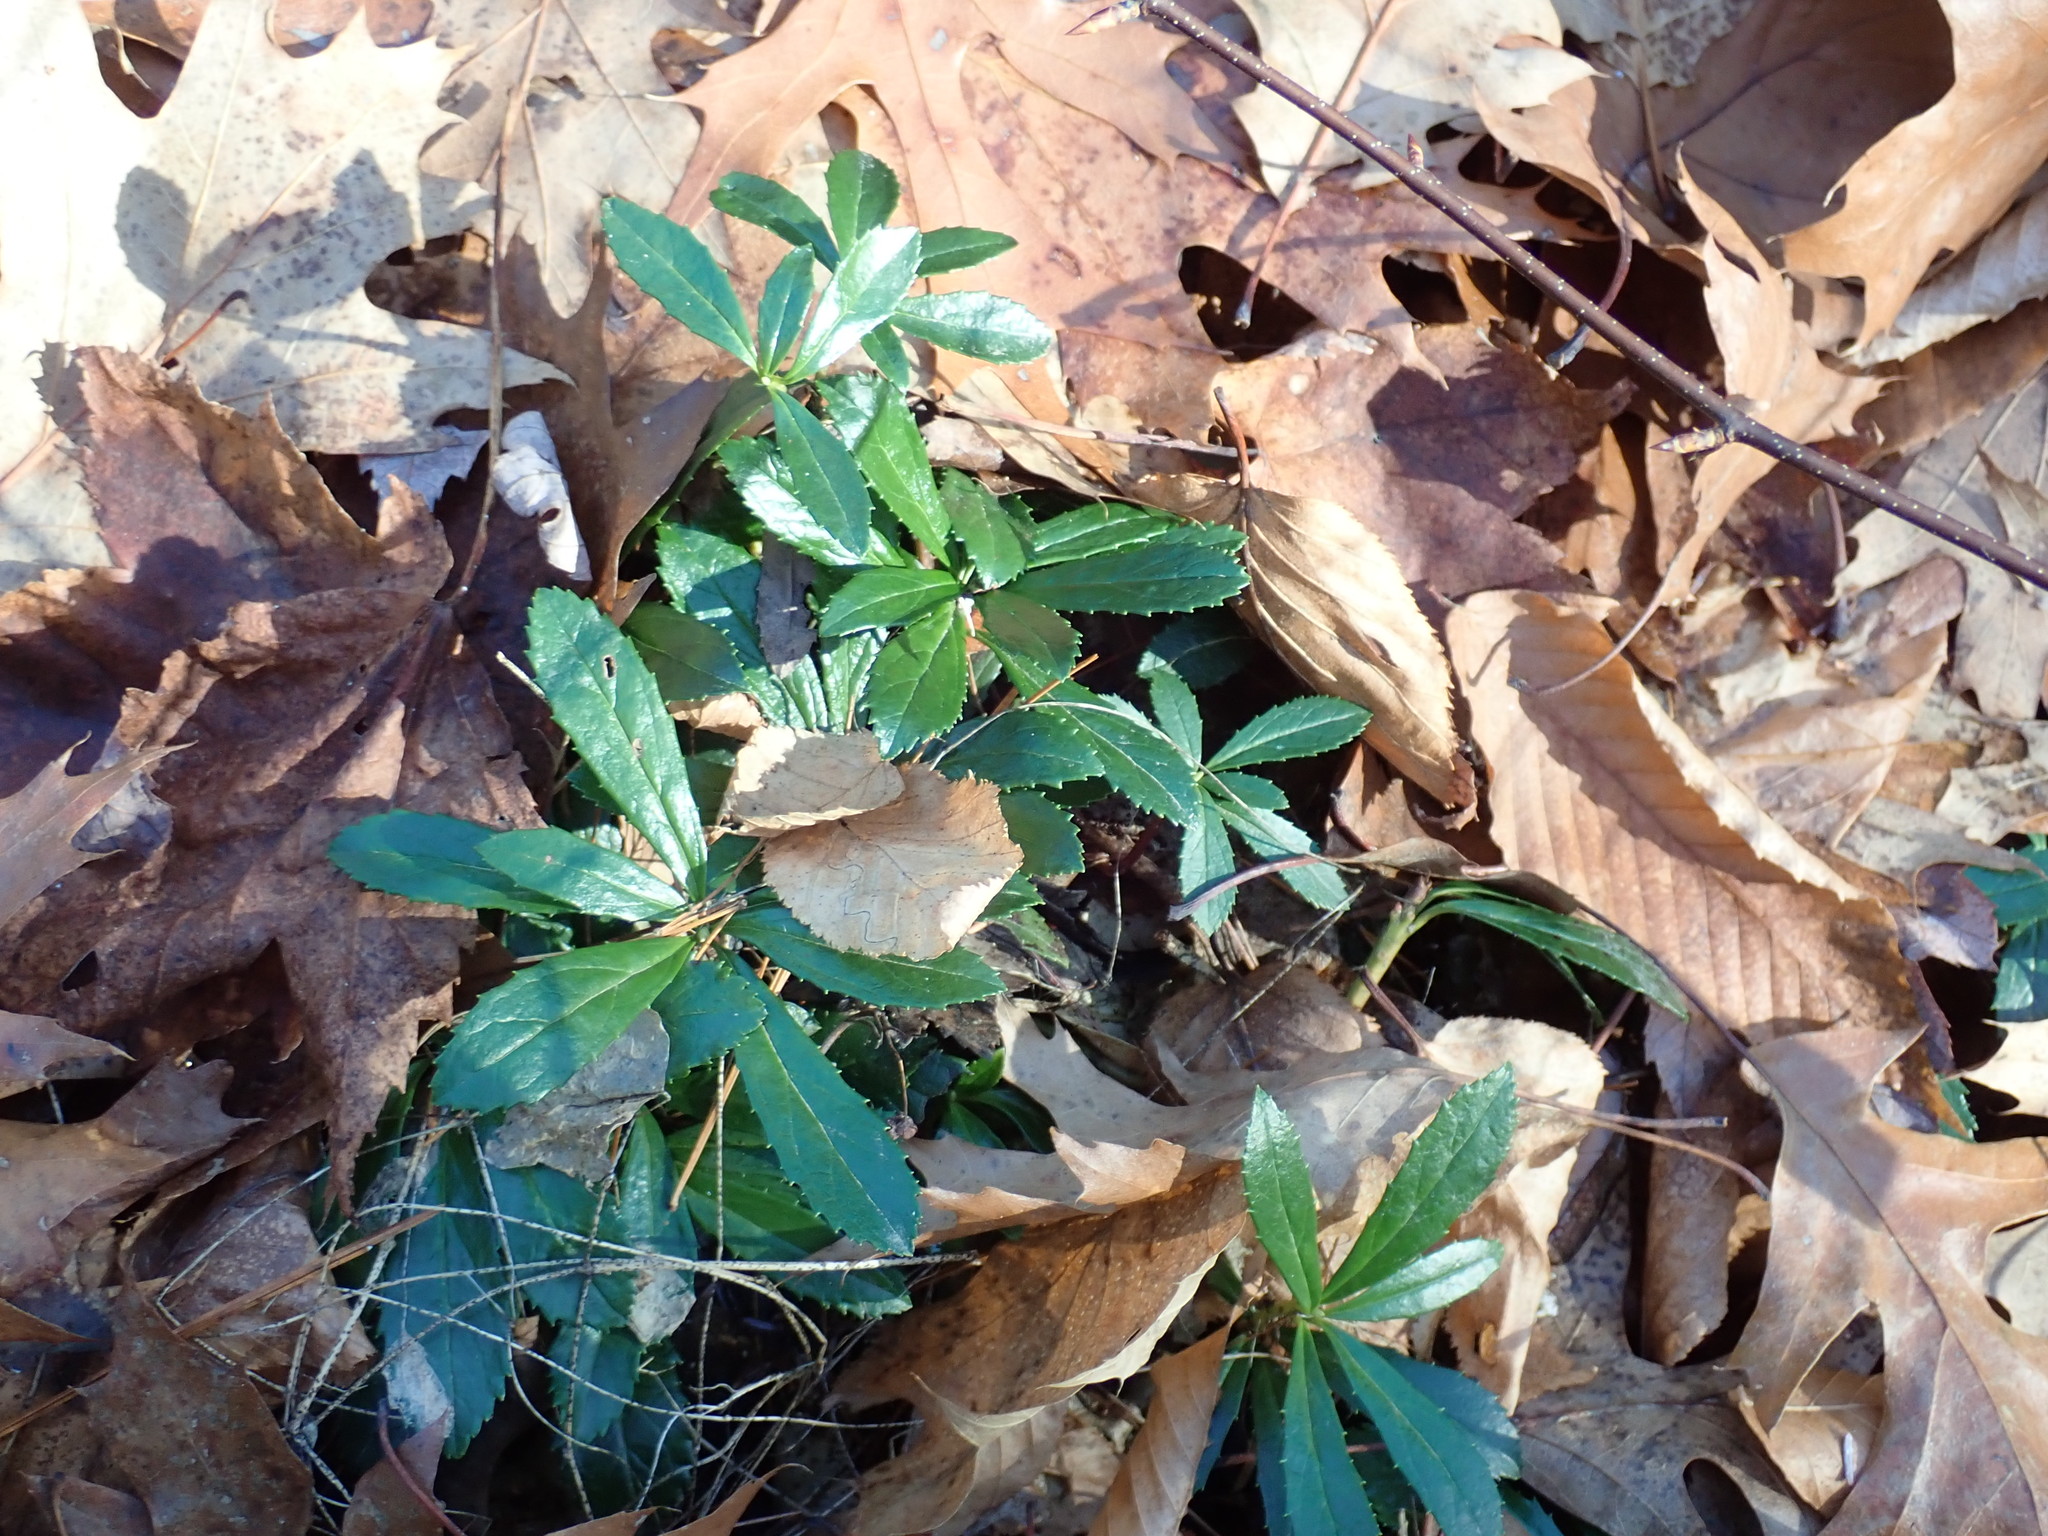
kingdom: Plantae
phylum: Tracheophyta
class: Magnoliopsida
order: Ericales
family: Ericaceae
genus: Chimaphila
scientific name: Chimaphila umbellata
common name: Pipsissewa
